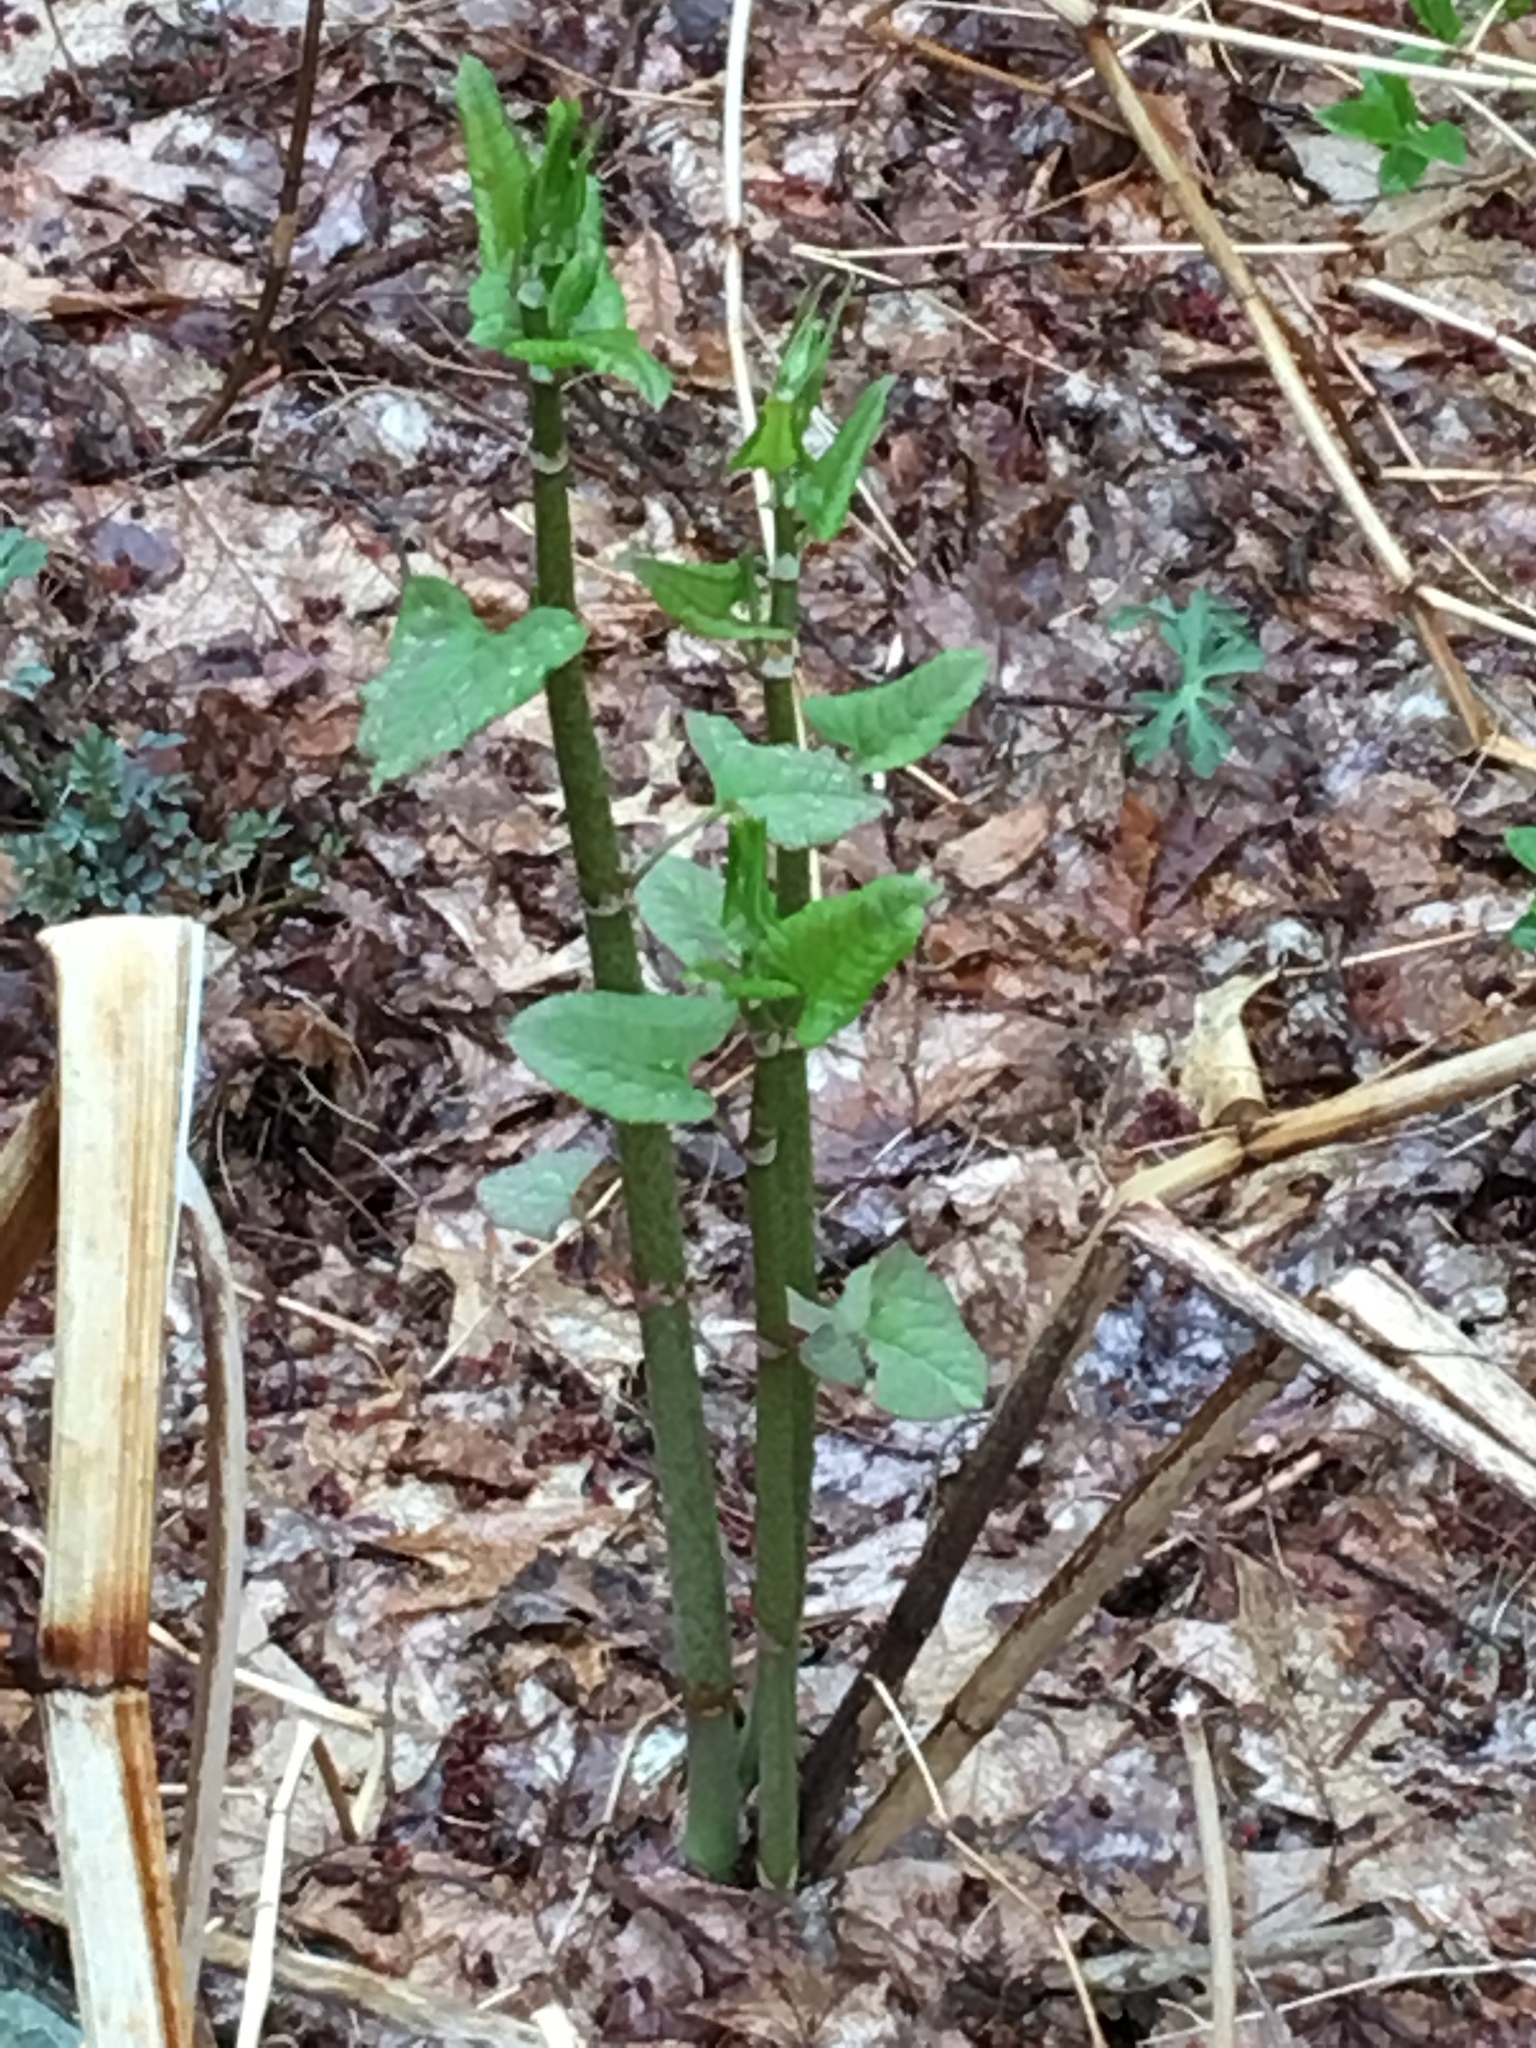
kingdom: Plantae
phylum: Tracheophyta
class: Magnoliopsida
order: Caryophyllales
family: Polygonaceae
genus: Reynoutria
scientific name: Reynoutria japonica
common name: Japanese knotweed
